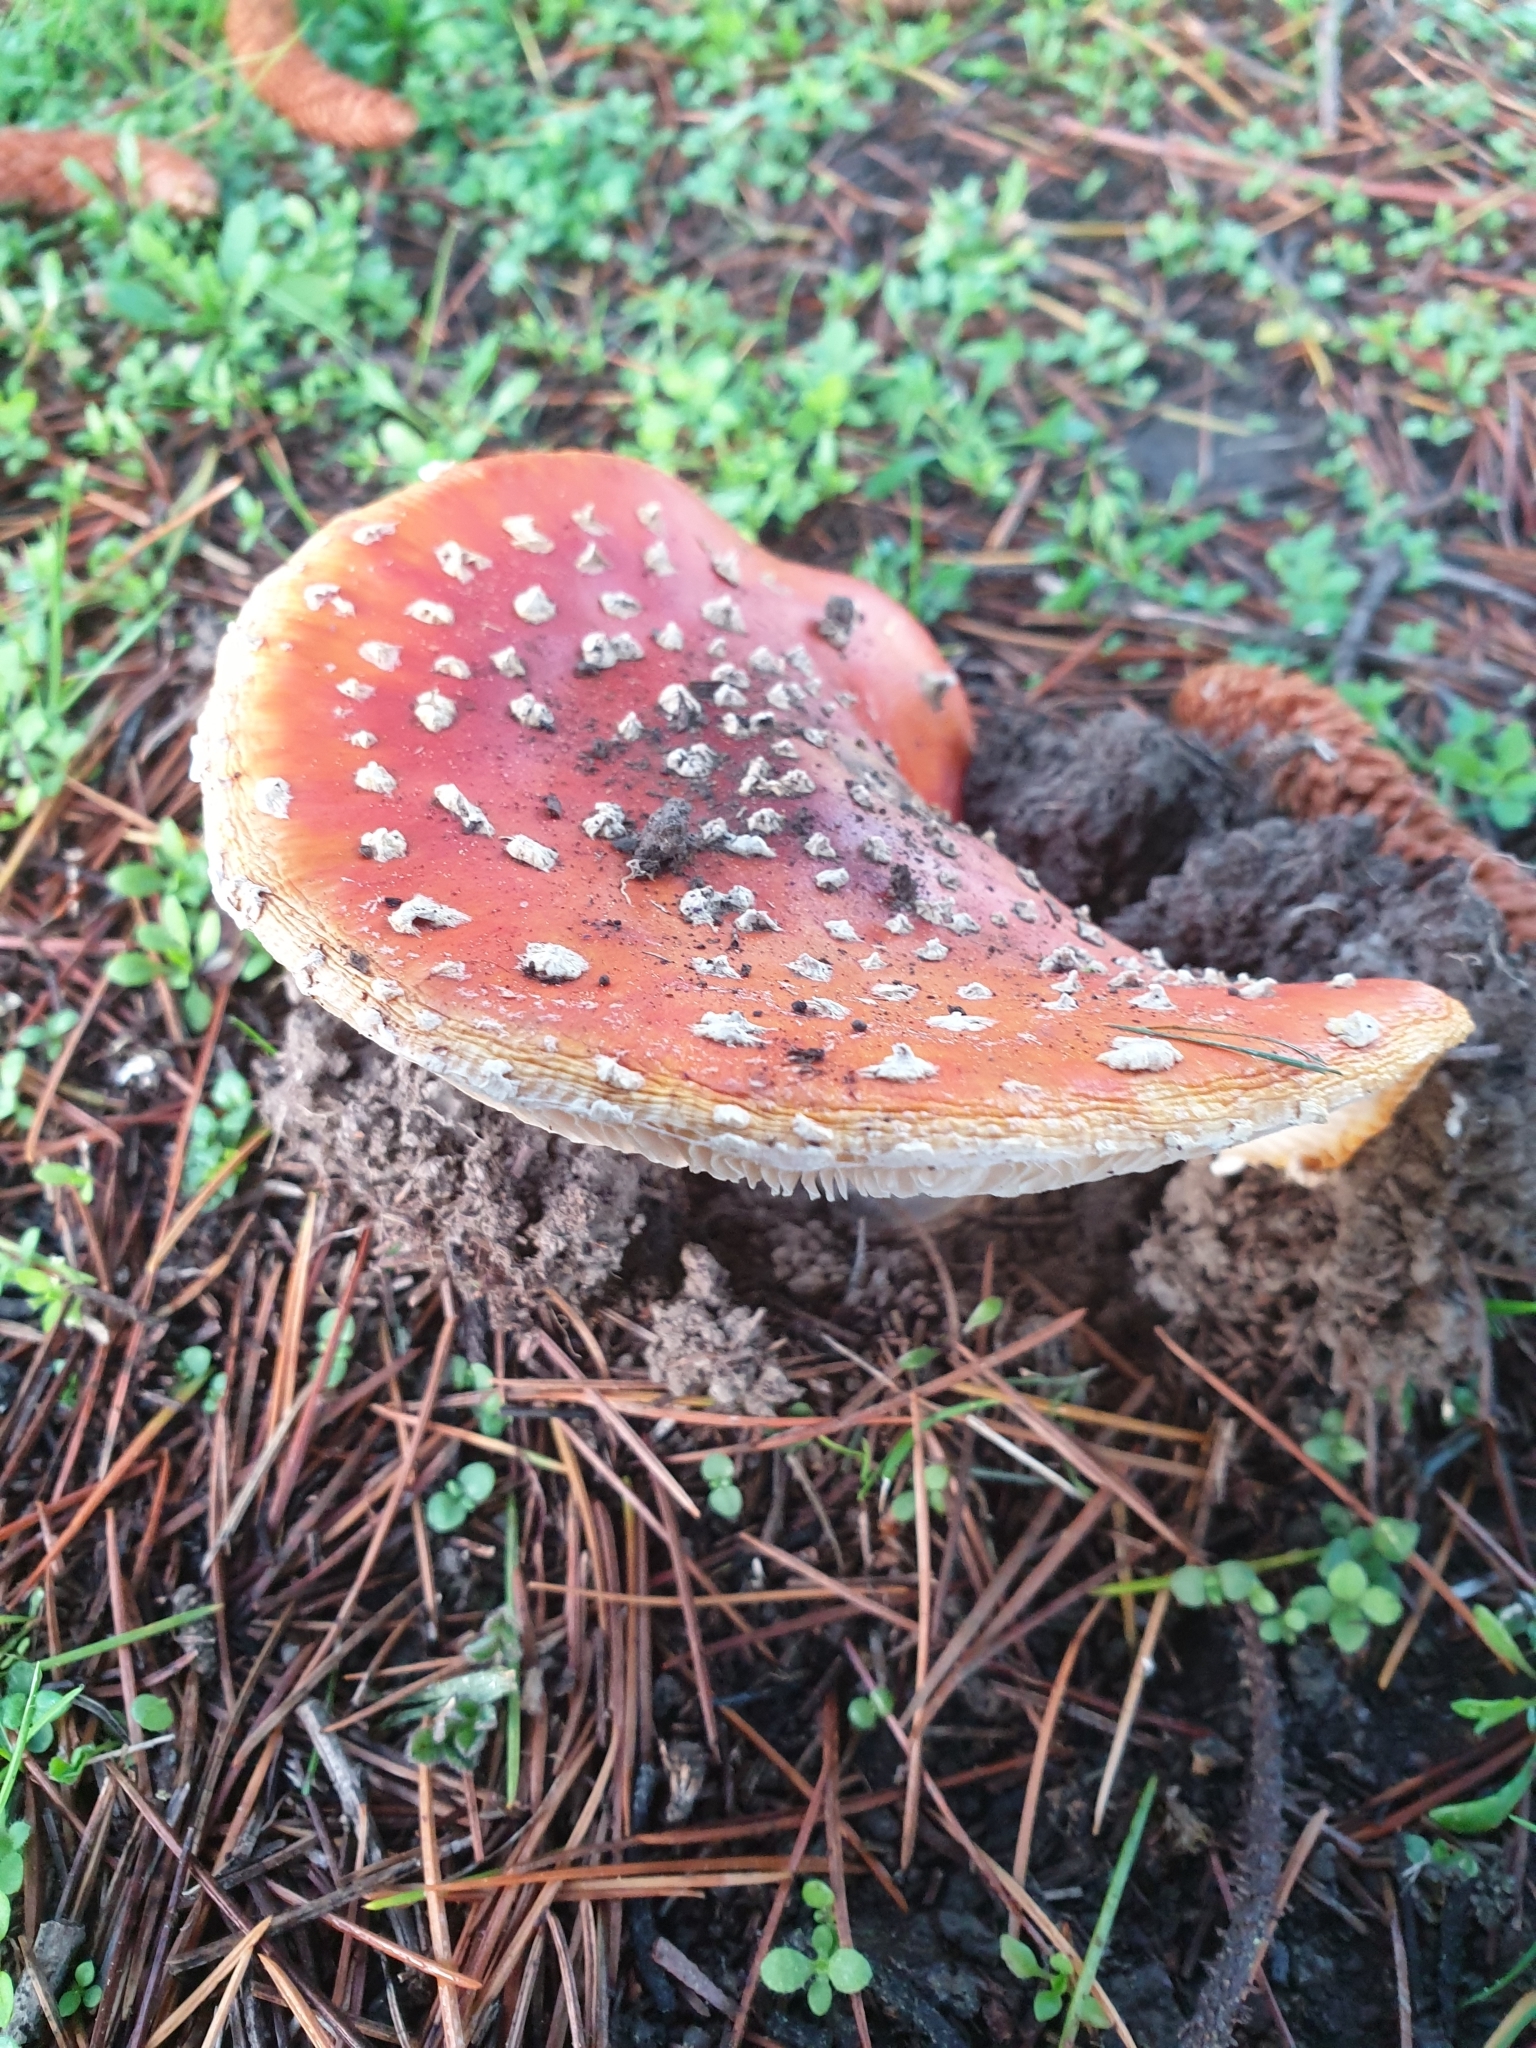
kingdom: Fungi
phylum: Basidiomycota
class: Agaricomycetes
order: Agaricales
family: Amanitaceae
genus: Amanita
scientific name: Amanita muscaria
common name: Fly agaric
